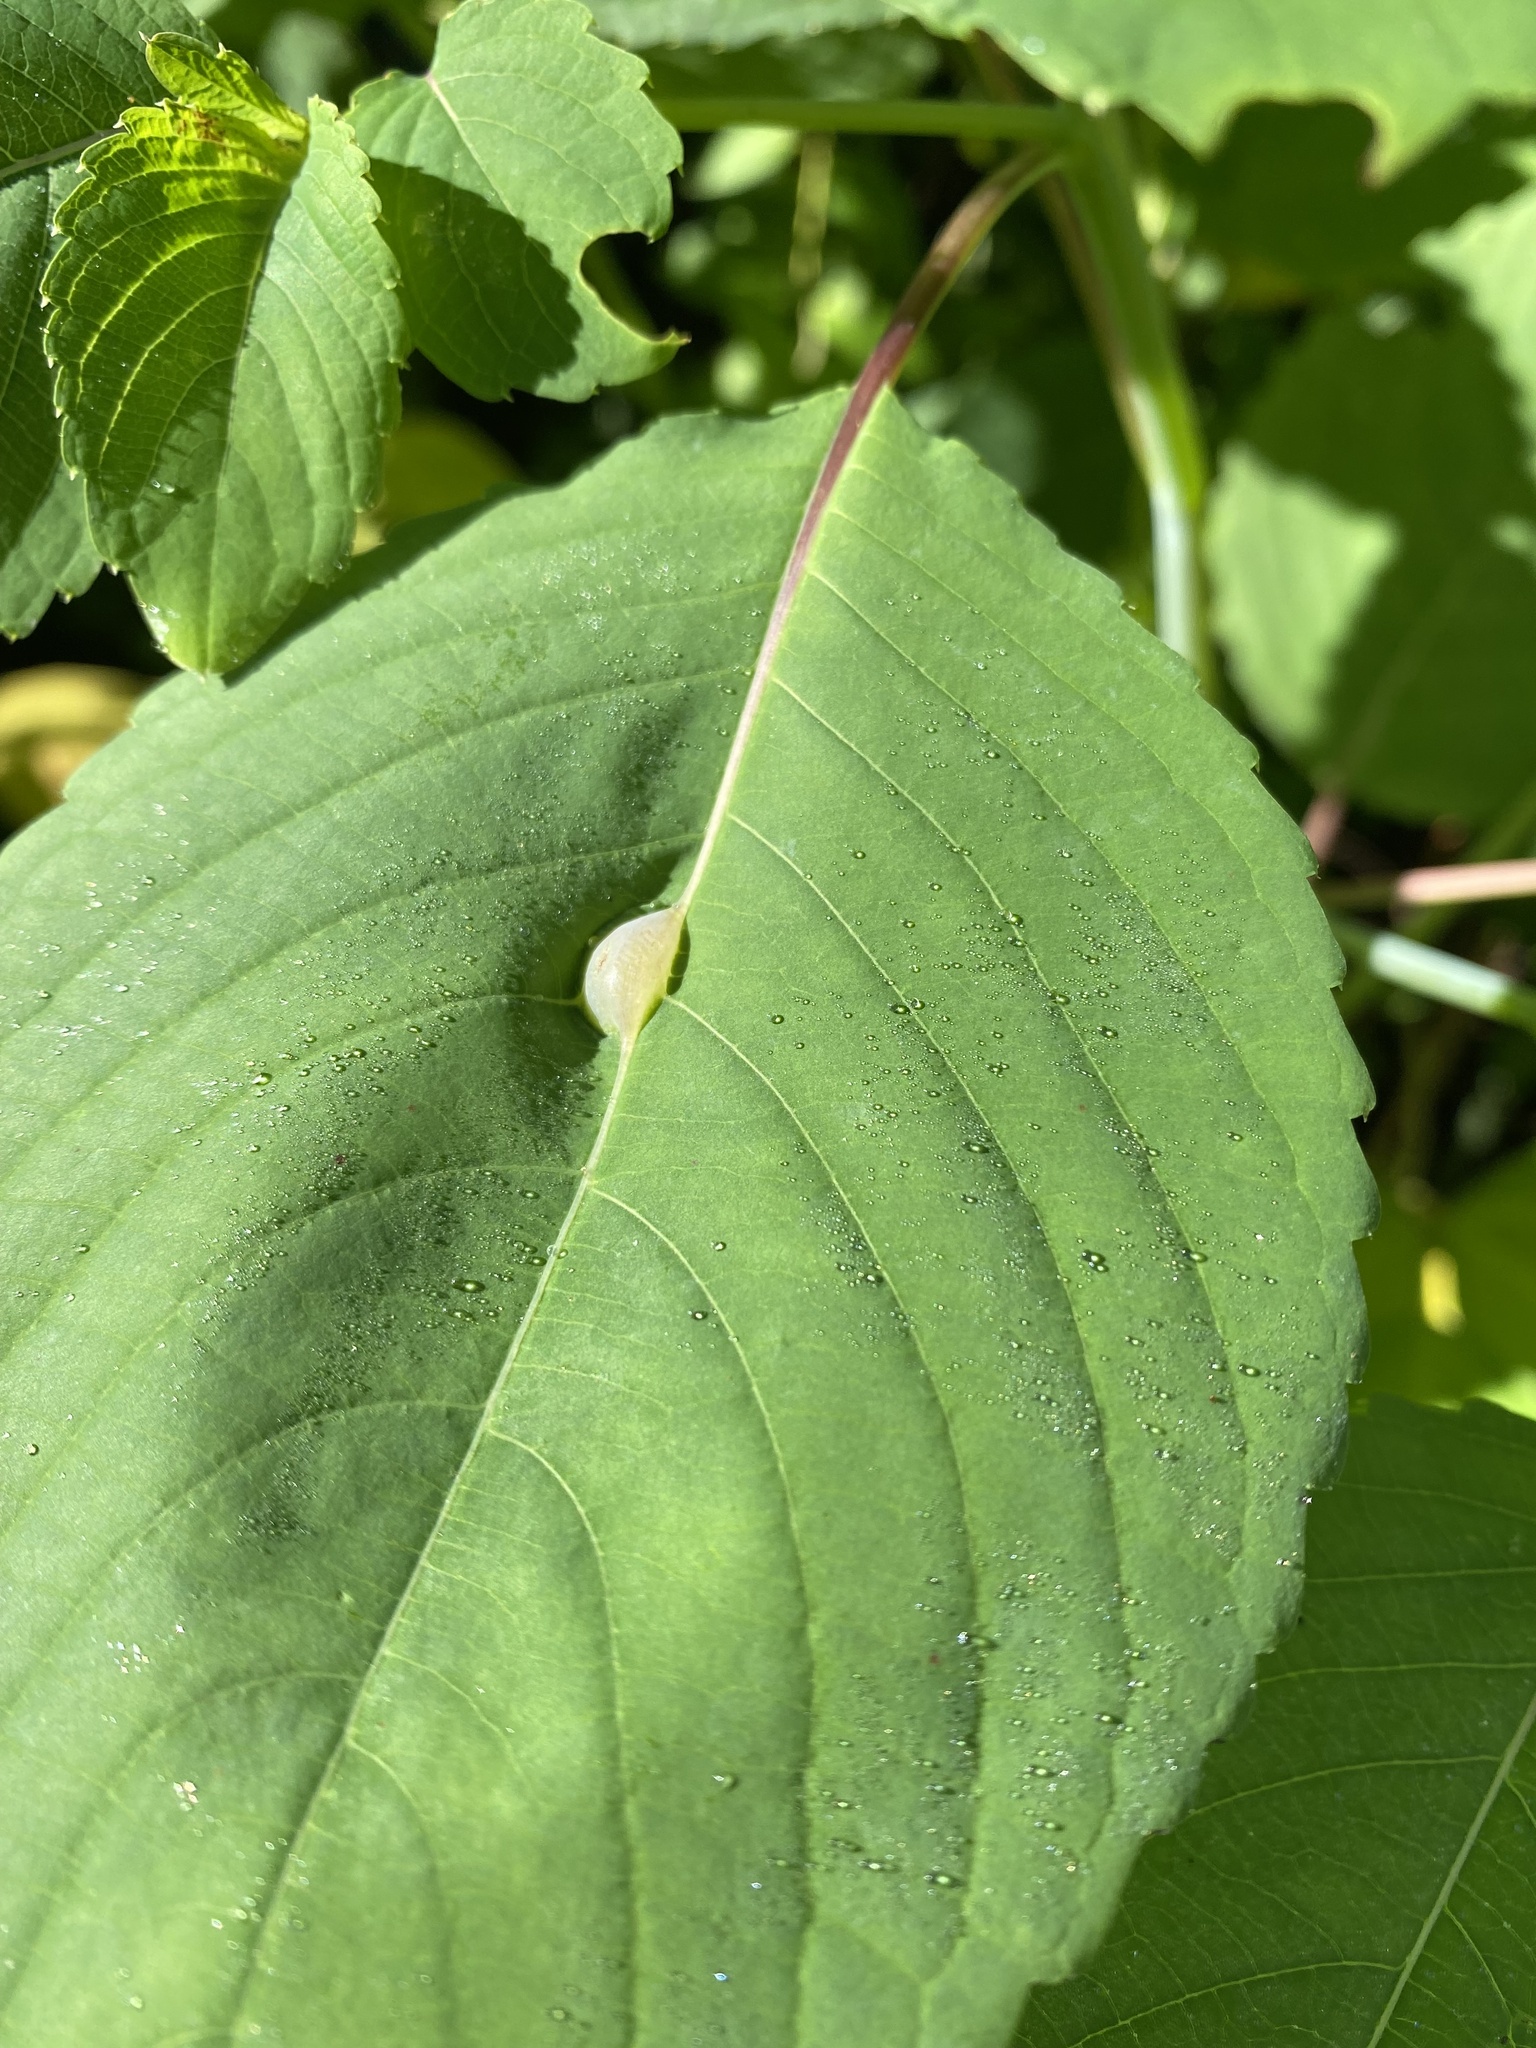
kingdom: Animalia
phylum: Arthropoda
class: Insecta
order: Diptera
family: Cecidomyiidae
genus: Neolasioptera
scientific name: Neolasioptera impatientifolia
